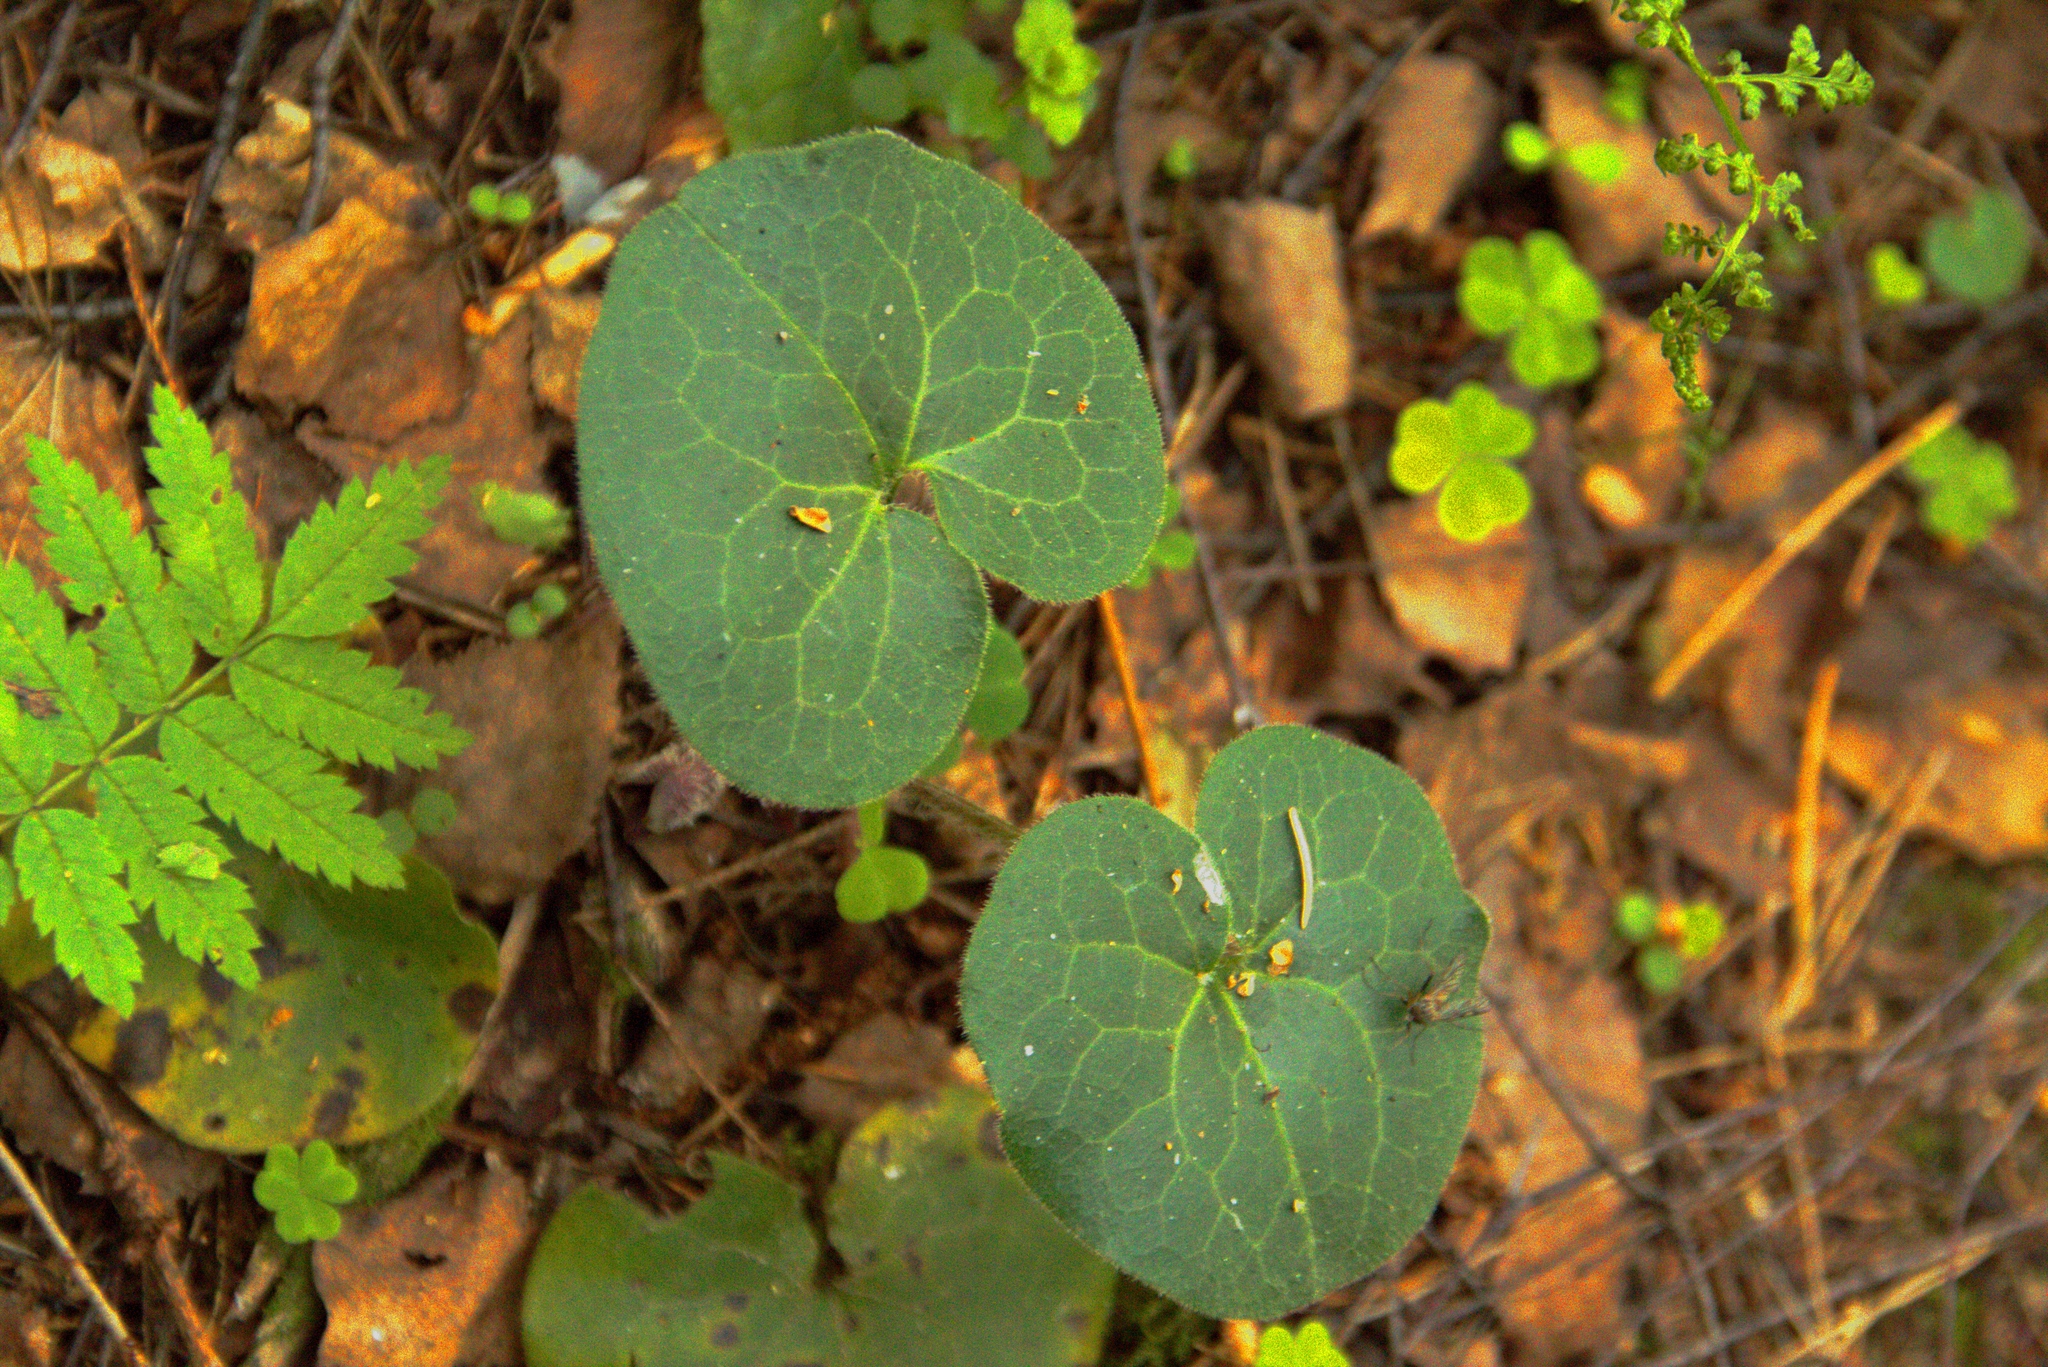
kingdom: Plantae
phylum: Tracheophyta
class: Magnoliopsida
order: Piperales
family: Aristolochiaceae
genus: Asarum
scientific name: Asarum europaeum
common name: Asarabacca
